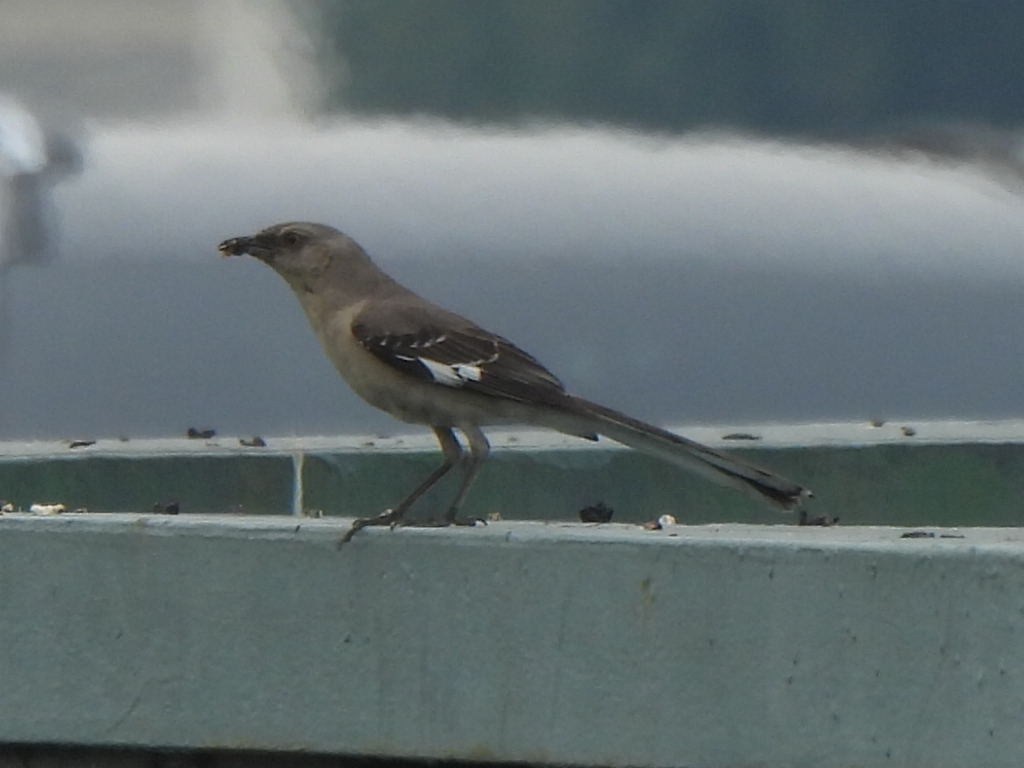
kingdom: Animalia
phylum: Chordata
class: Aves
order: Passeriformes
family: Mimidae
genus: Mimus
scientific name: Mimus polyglottos
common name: Northern mockingbird
